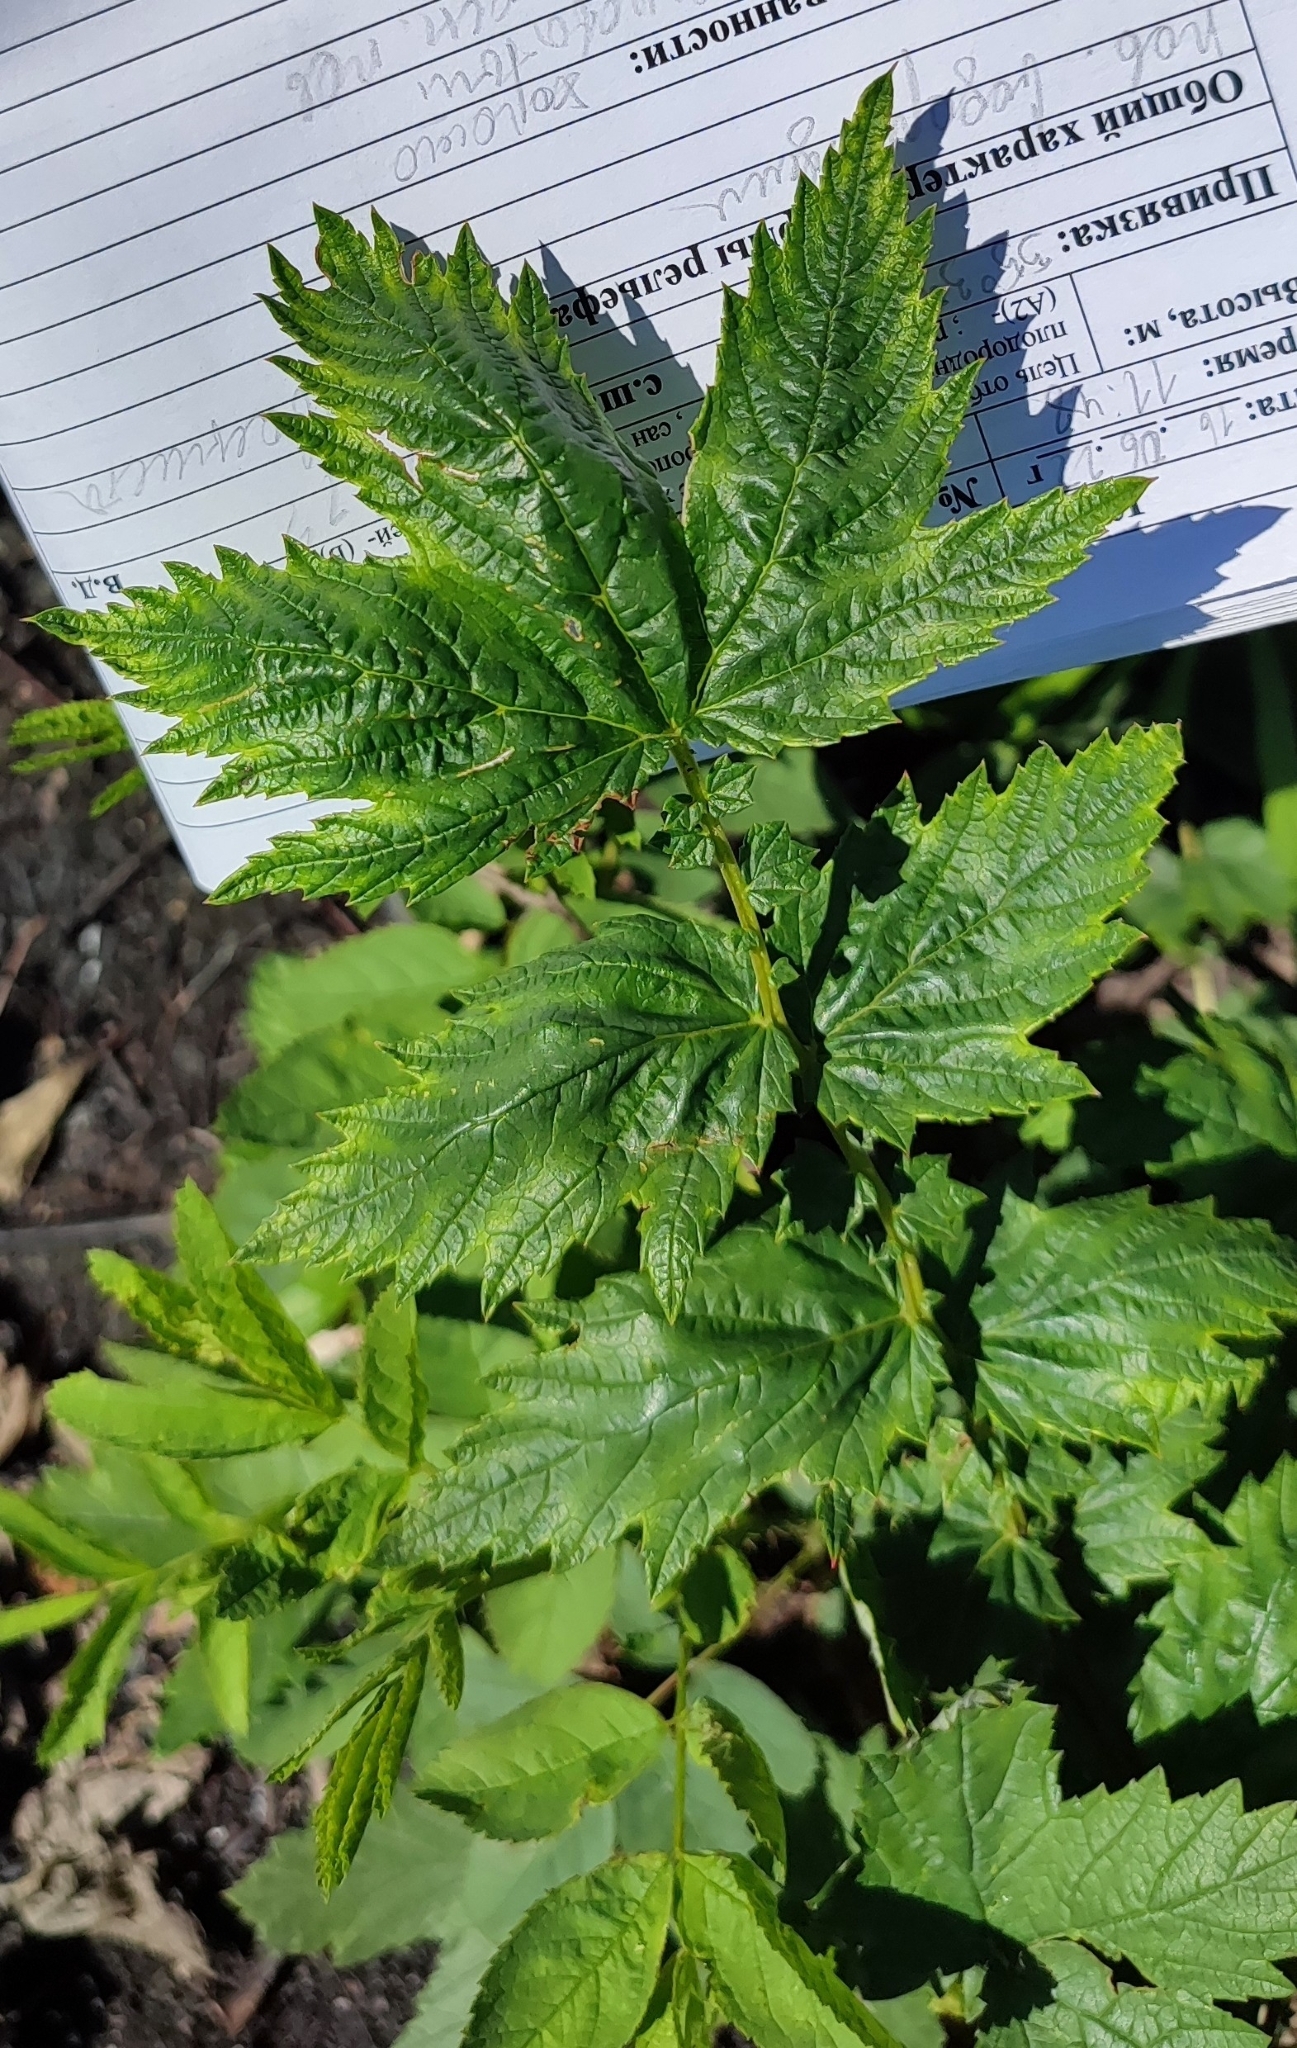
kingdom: Plantae
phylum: Tracheophyta
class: Magnoliopsida
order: Rosales
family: Rosaceae
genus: Filipendula
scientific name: Filipendula ulmaria
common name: Meadowsweet
